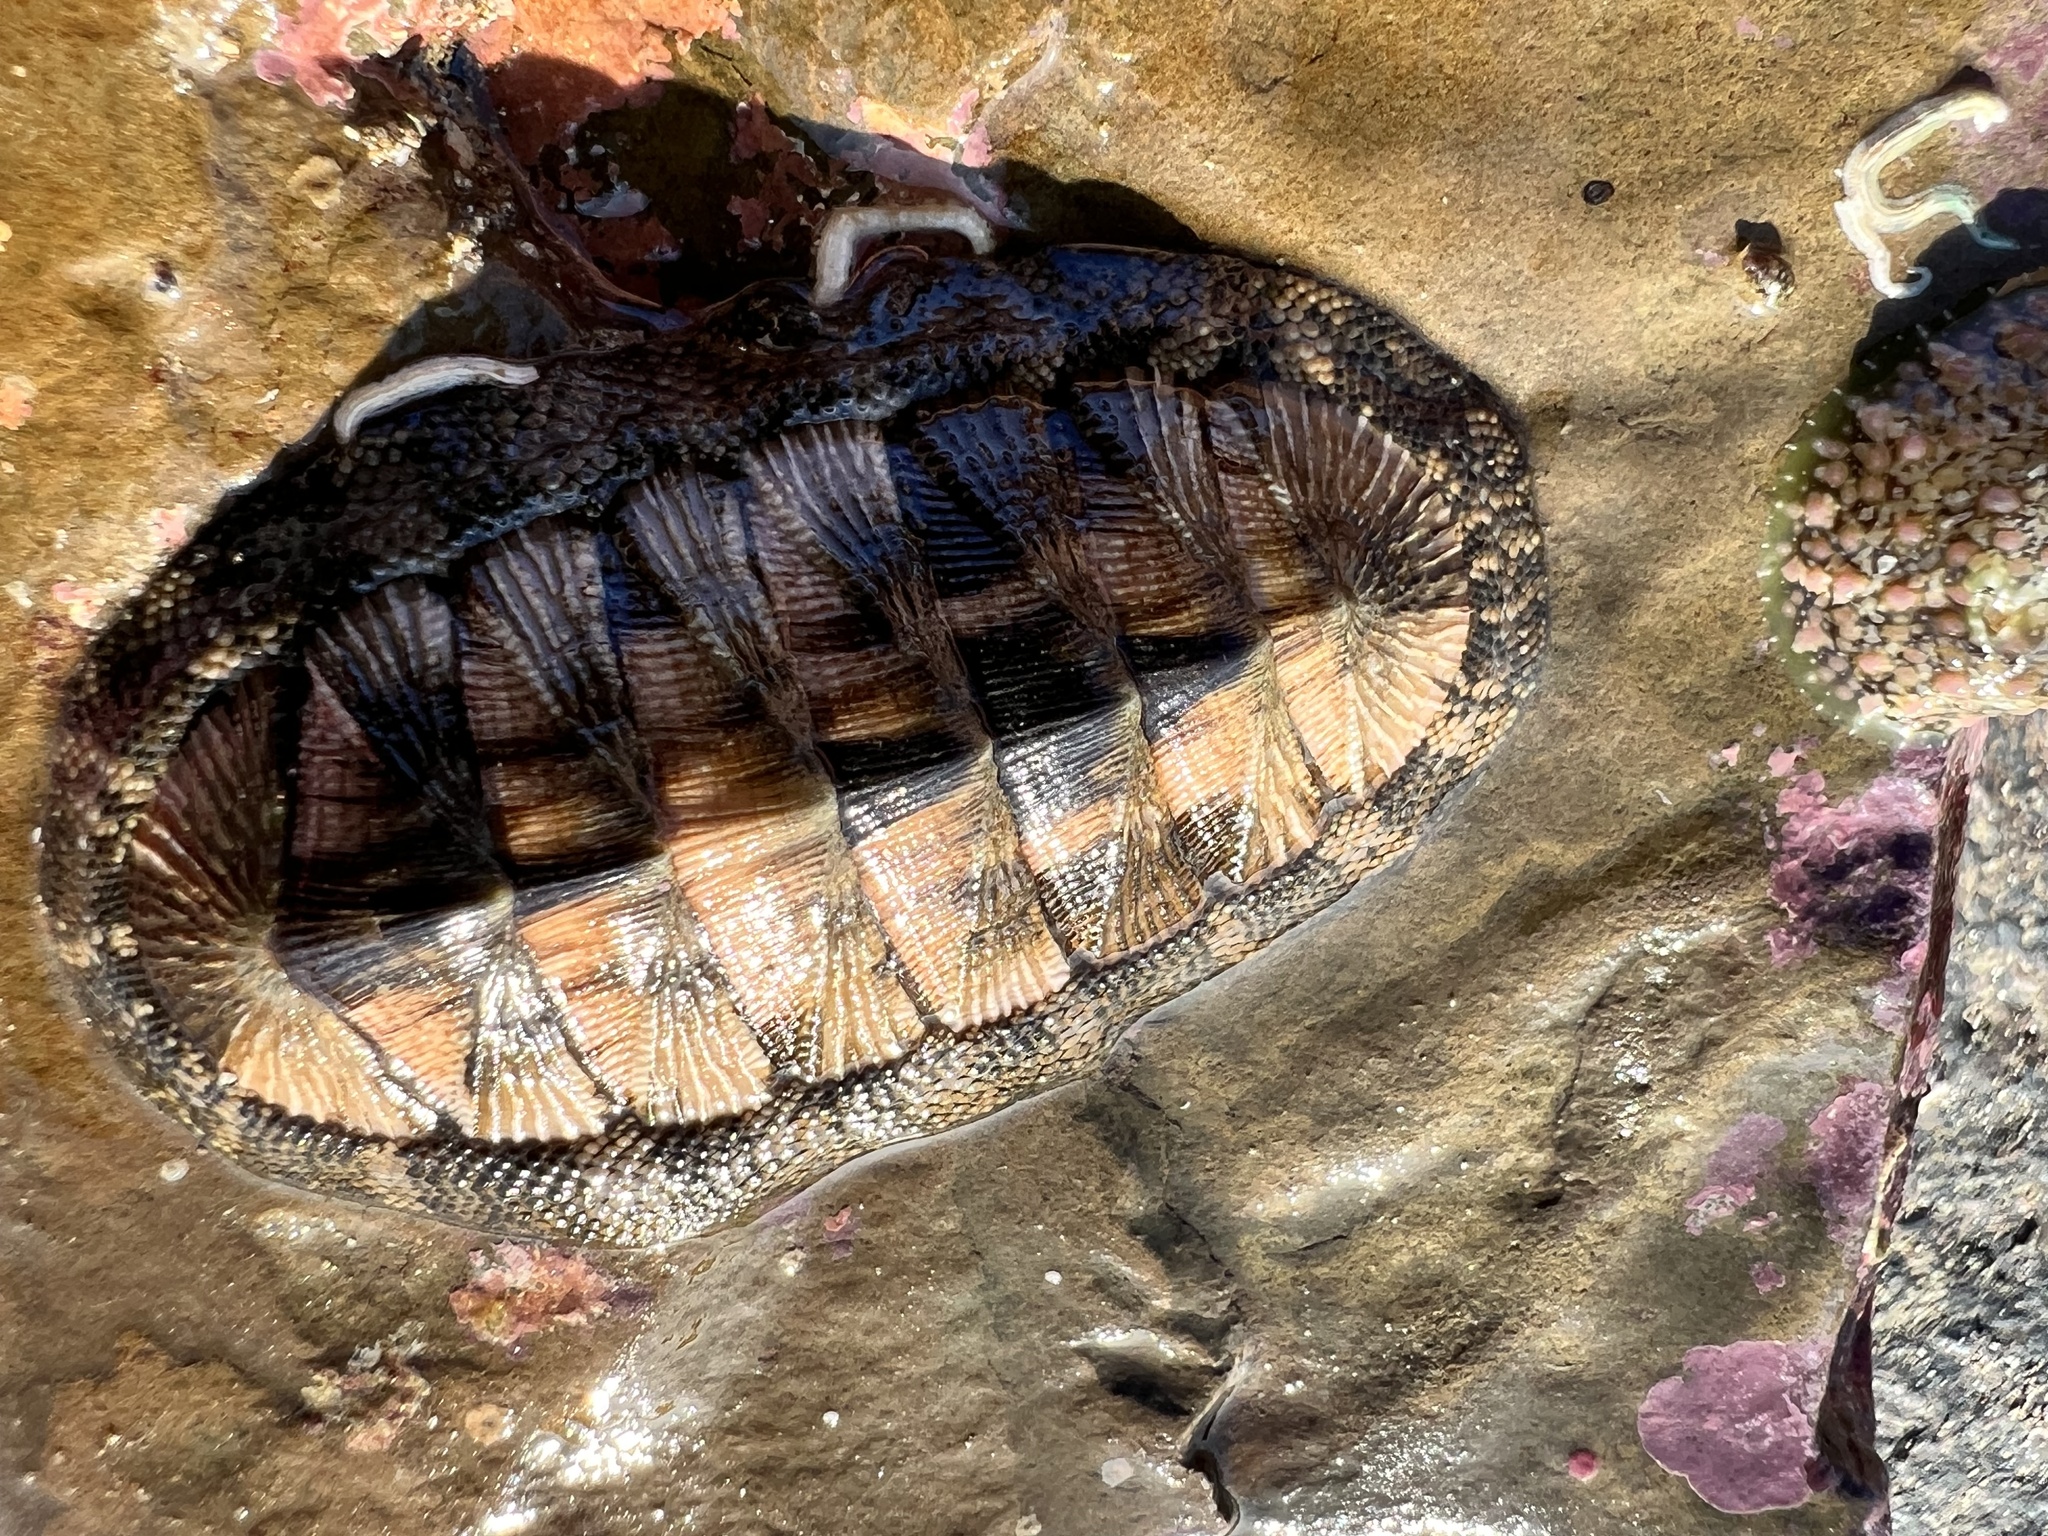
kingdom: Animalia
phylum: Mollusca
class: Polyplacophora
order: Chitonida
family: Chitonidae
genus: Chiton
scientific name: Chiton stokesii
